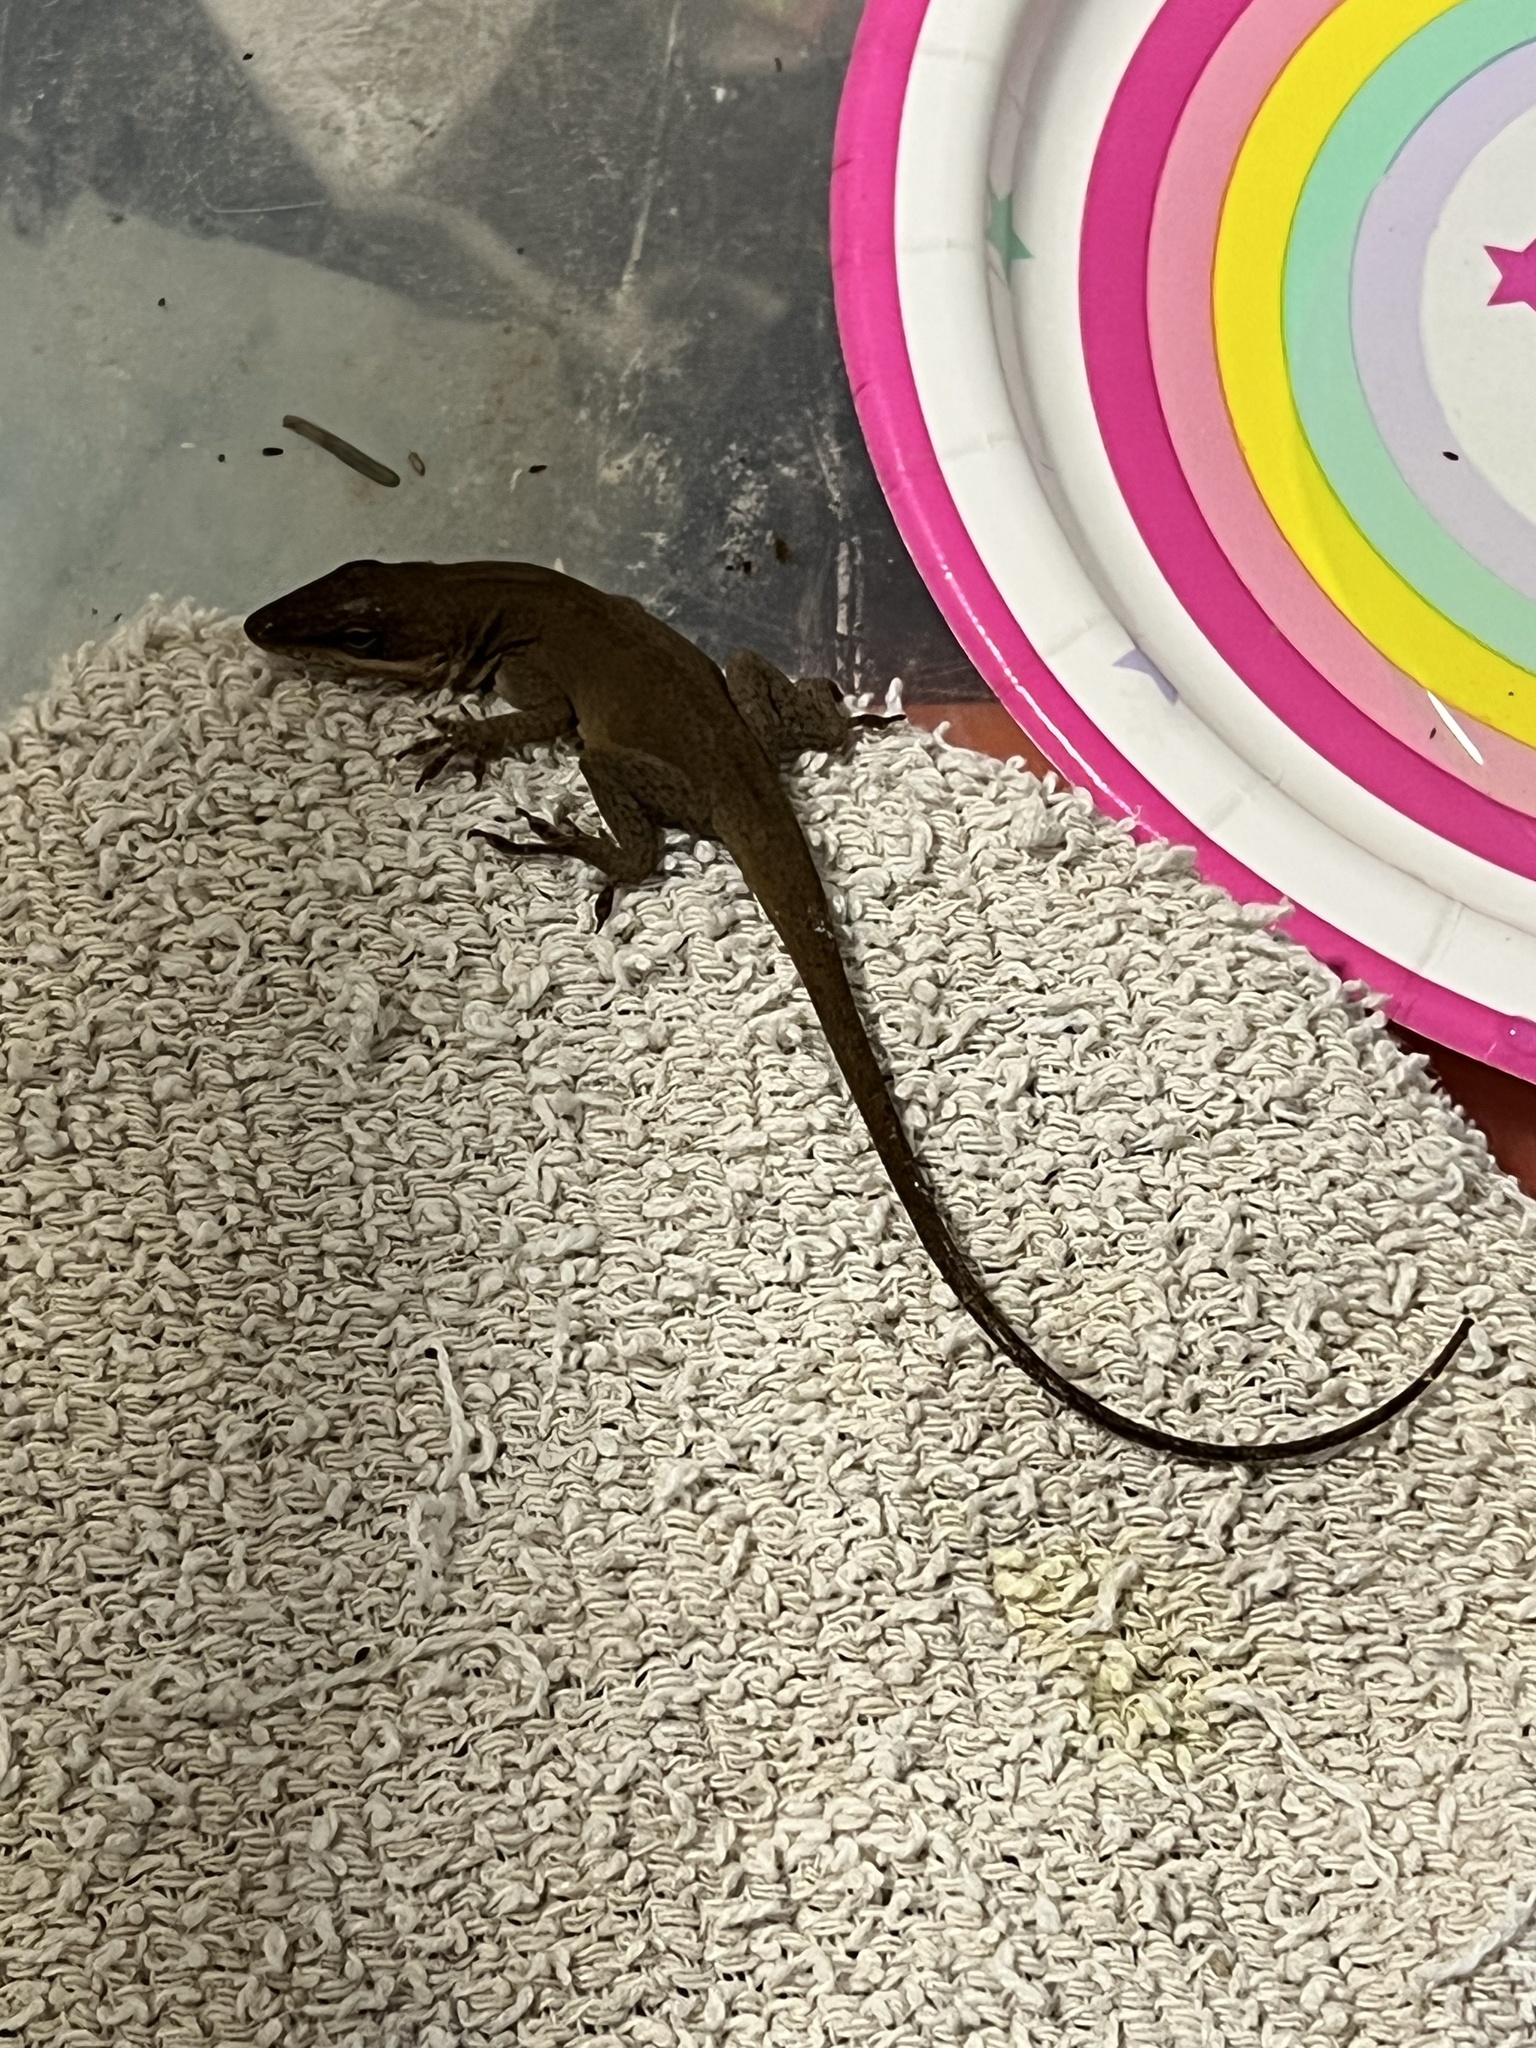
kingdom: Animalia
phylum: Chordata
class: Squamata
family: Dactyloidae
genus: Anolis
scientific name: Anolis carolinensis
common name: Green anole
